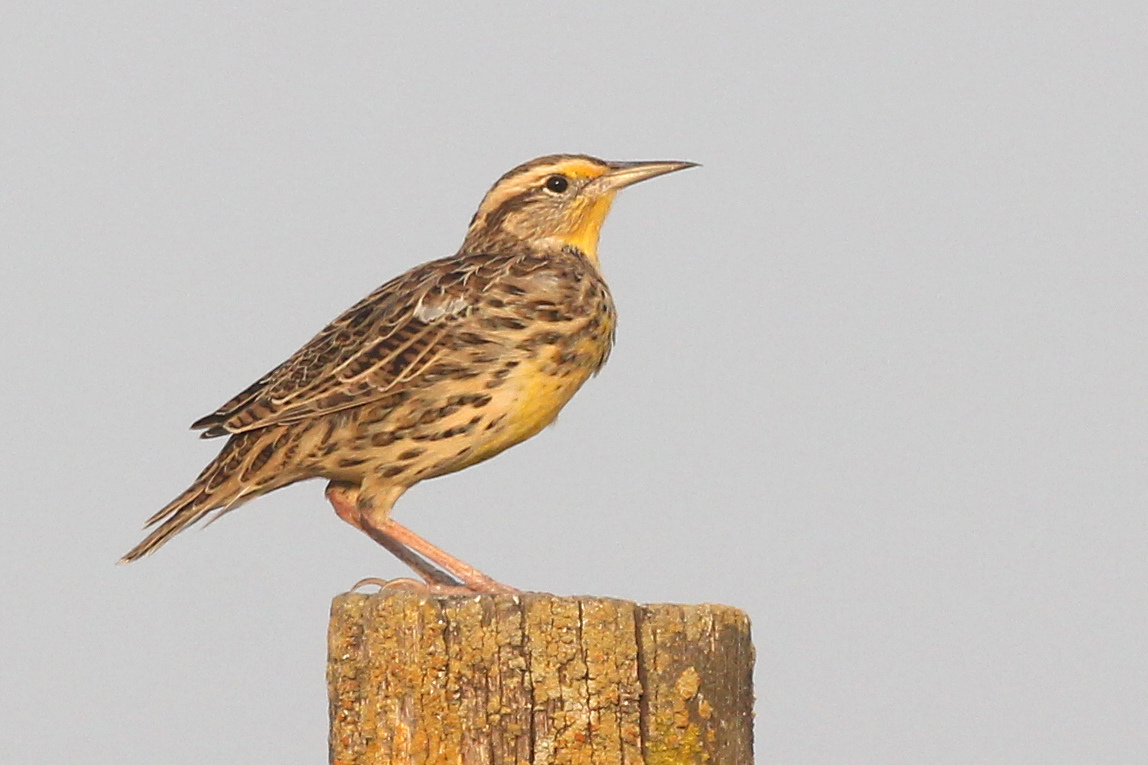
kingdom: Animalia
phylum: Chordata
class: Aves
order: Passeriformes
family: Icteridae
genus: Sturnella
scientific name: Sturnella neglecta
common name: Western meadowlark
